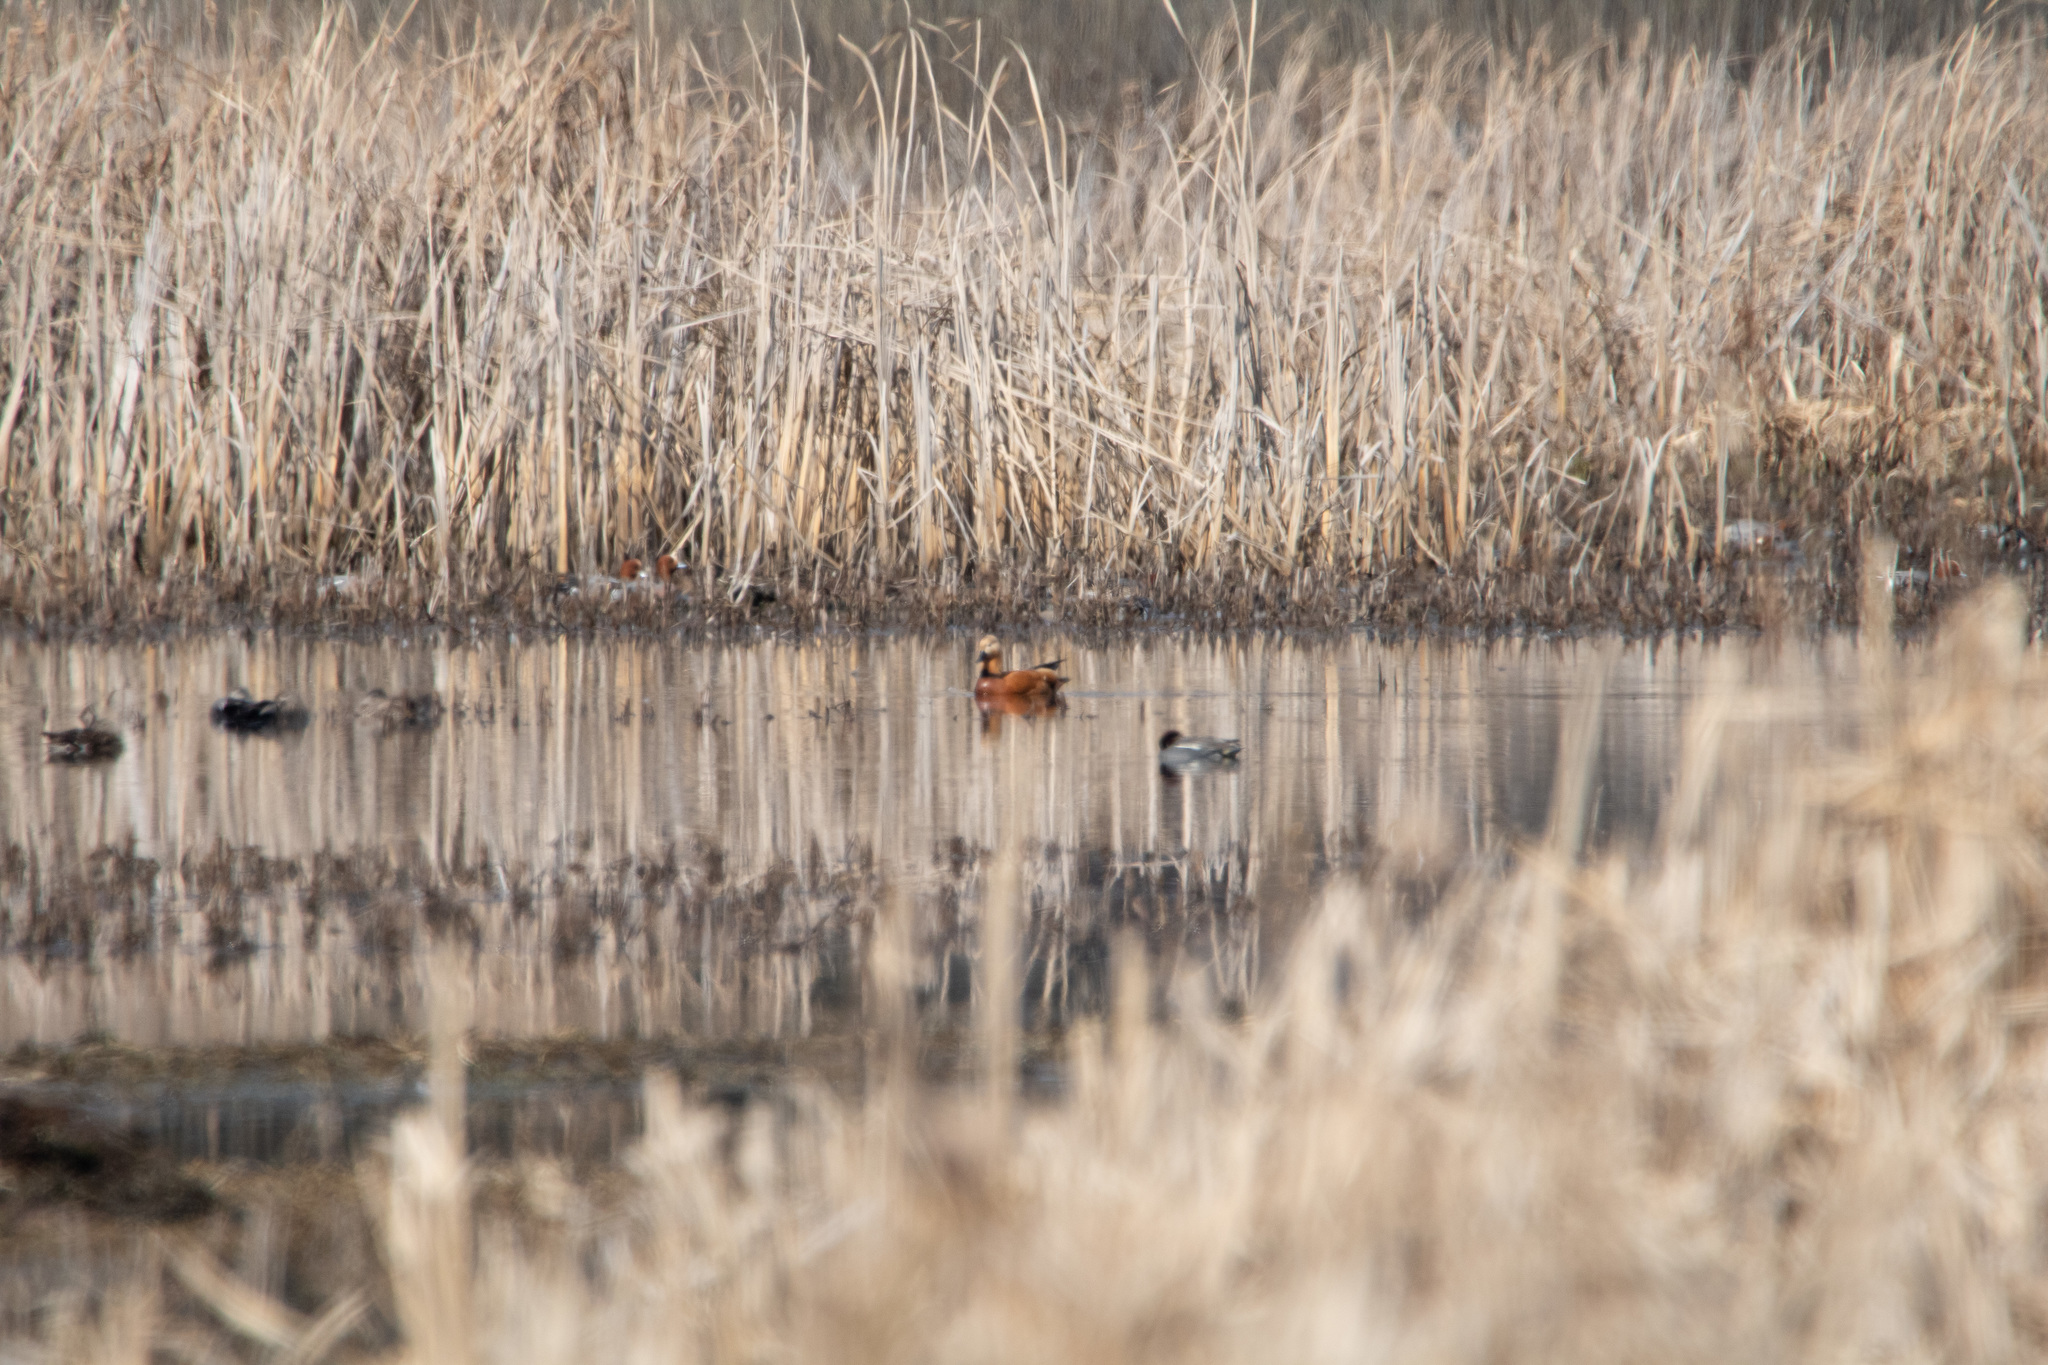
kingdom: Animalia
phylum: Chordata
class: Aves
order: Anseriformes
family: Anatidae
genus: Tadorna
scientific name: Tadorna ferruginea
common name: Ruddy shelduck
